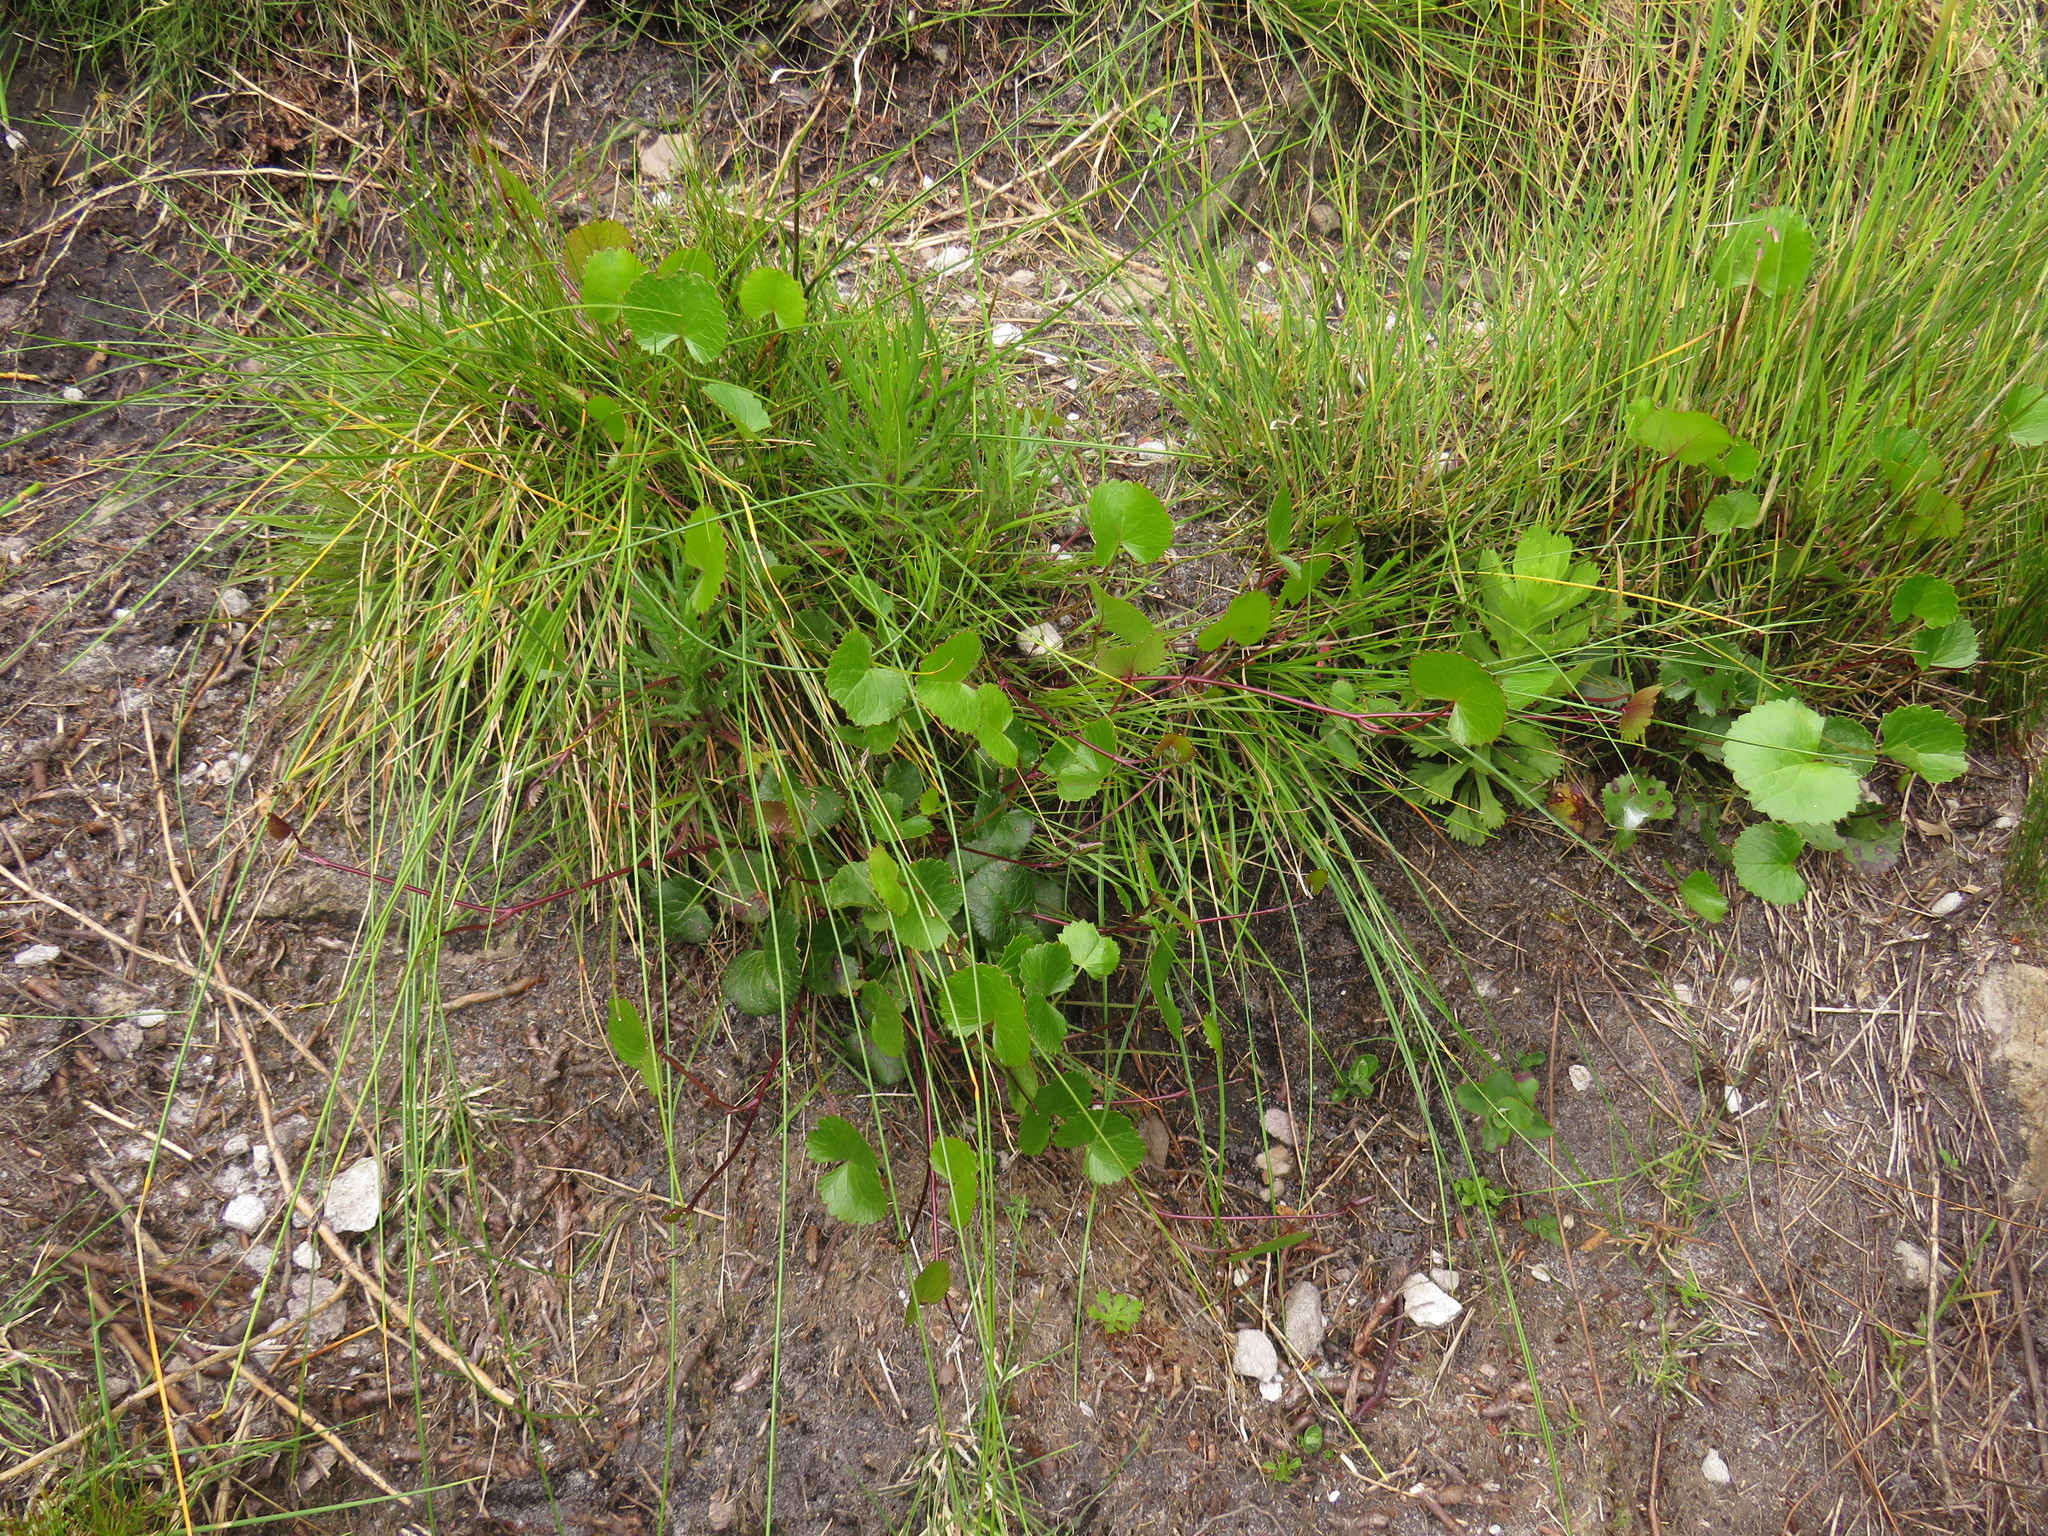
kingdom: Plantae
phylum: Tracheophyta
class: Magnoliopsida
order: Apiales
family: Apiaceae
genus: Centella
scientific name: Centella callioda
